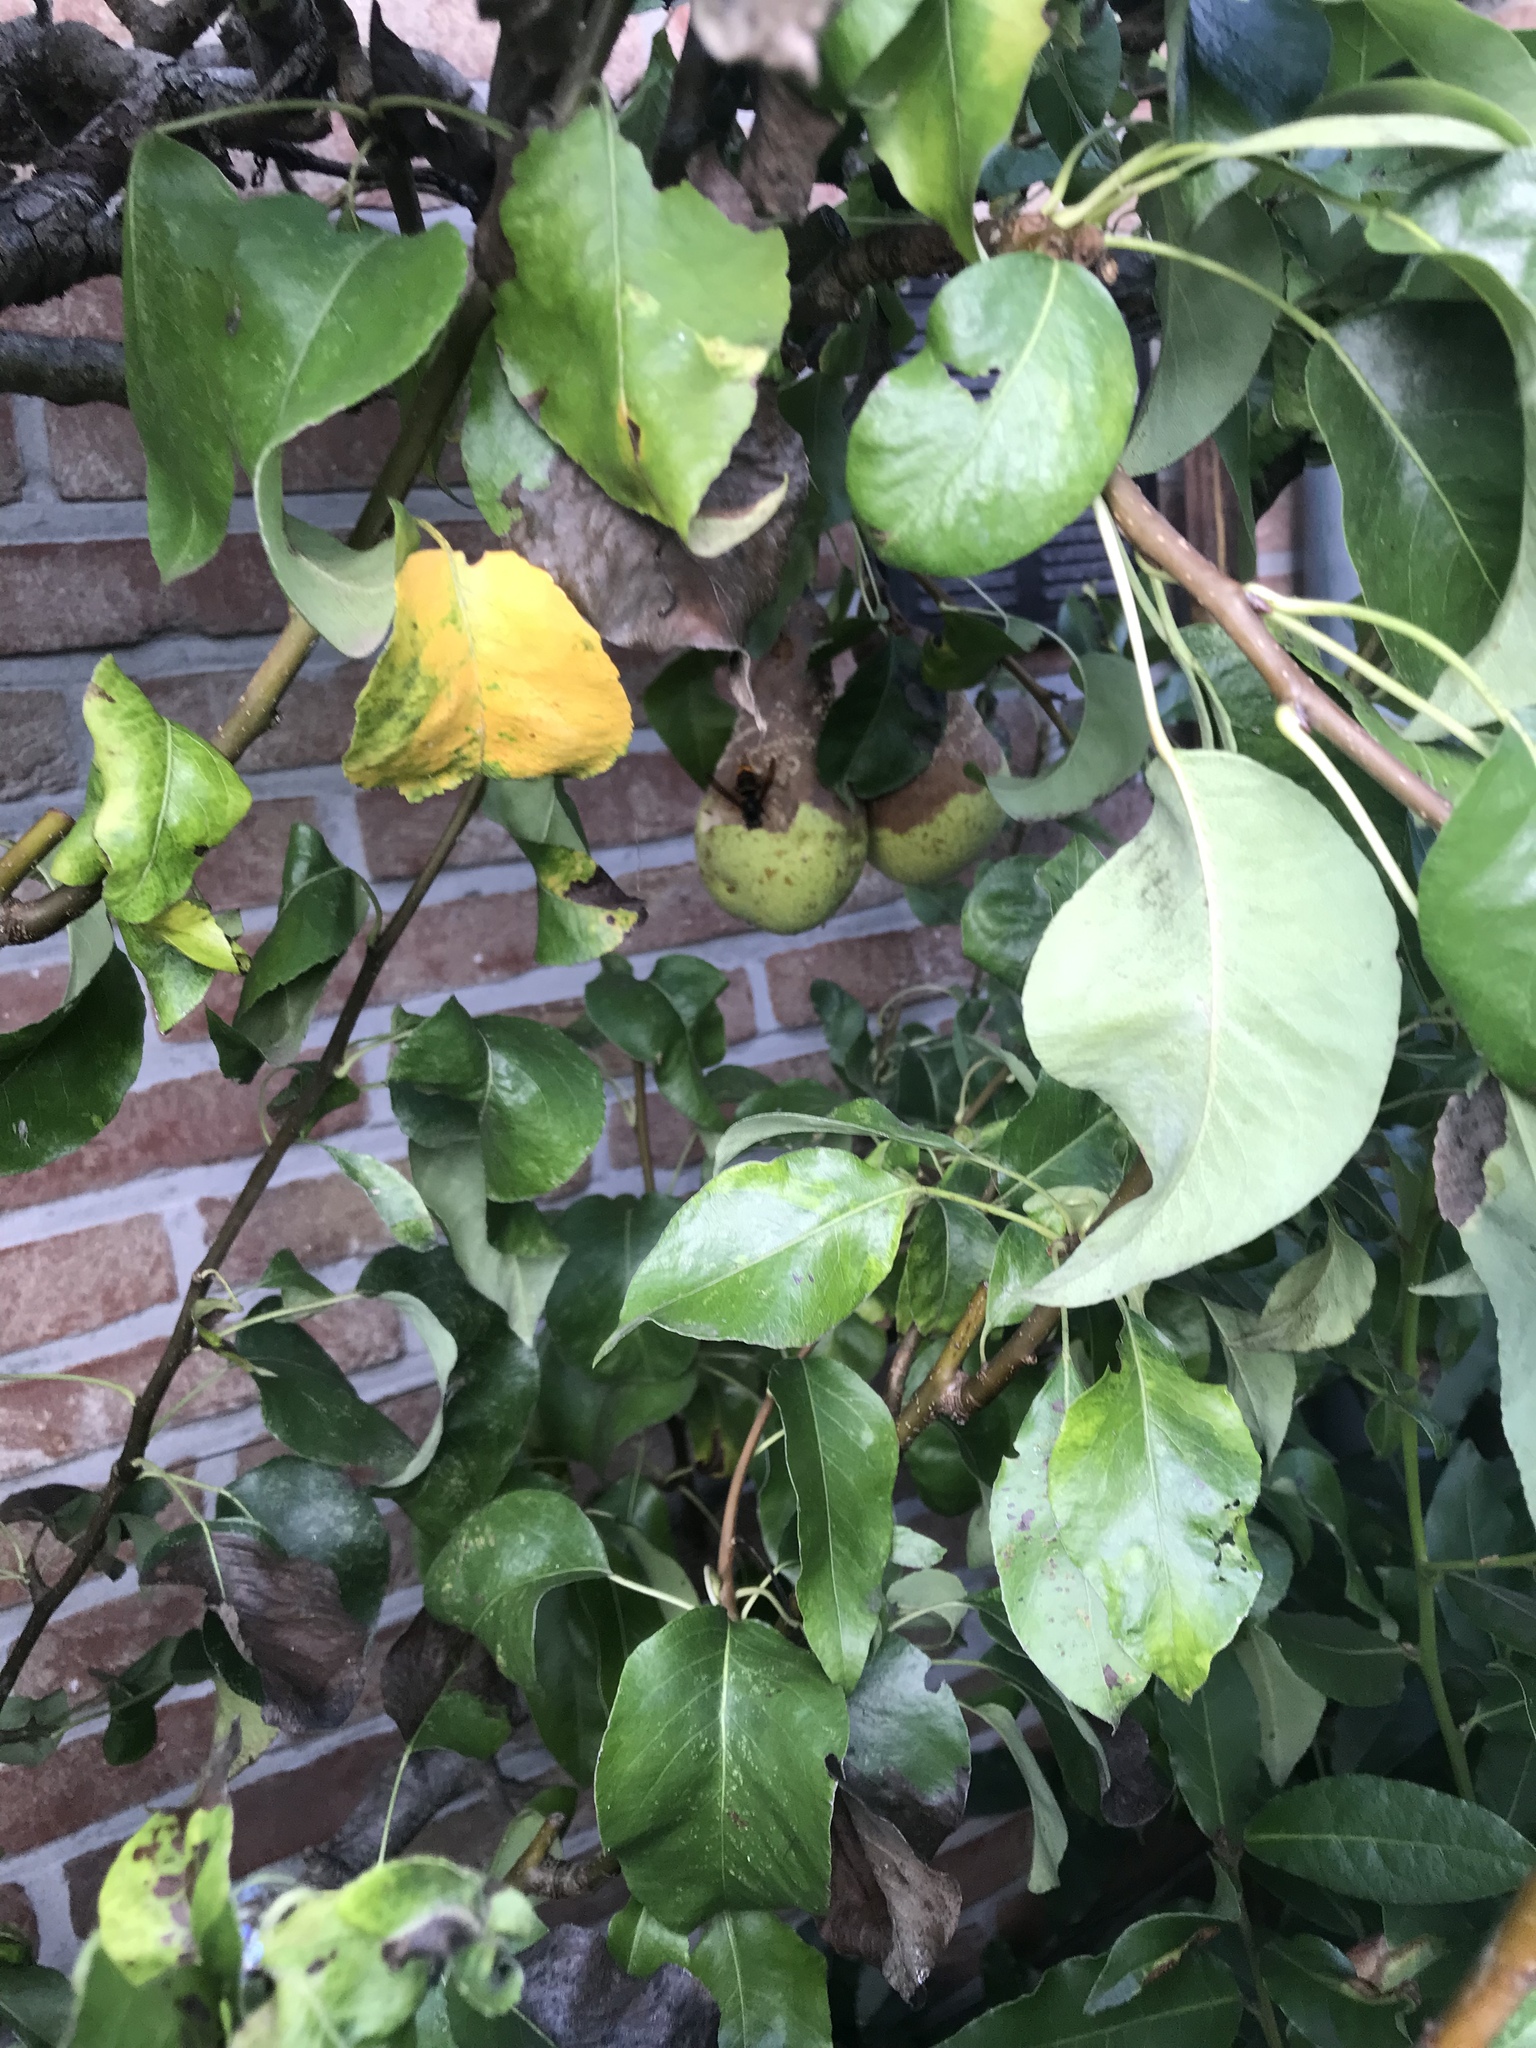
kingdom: Animalia
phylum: Arthropoda
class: Insecta
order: Hymenoptera
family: Vespidae
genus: Vespa
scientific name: Vespa velutina
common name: Asian hornet
